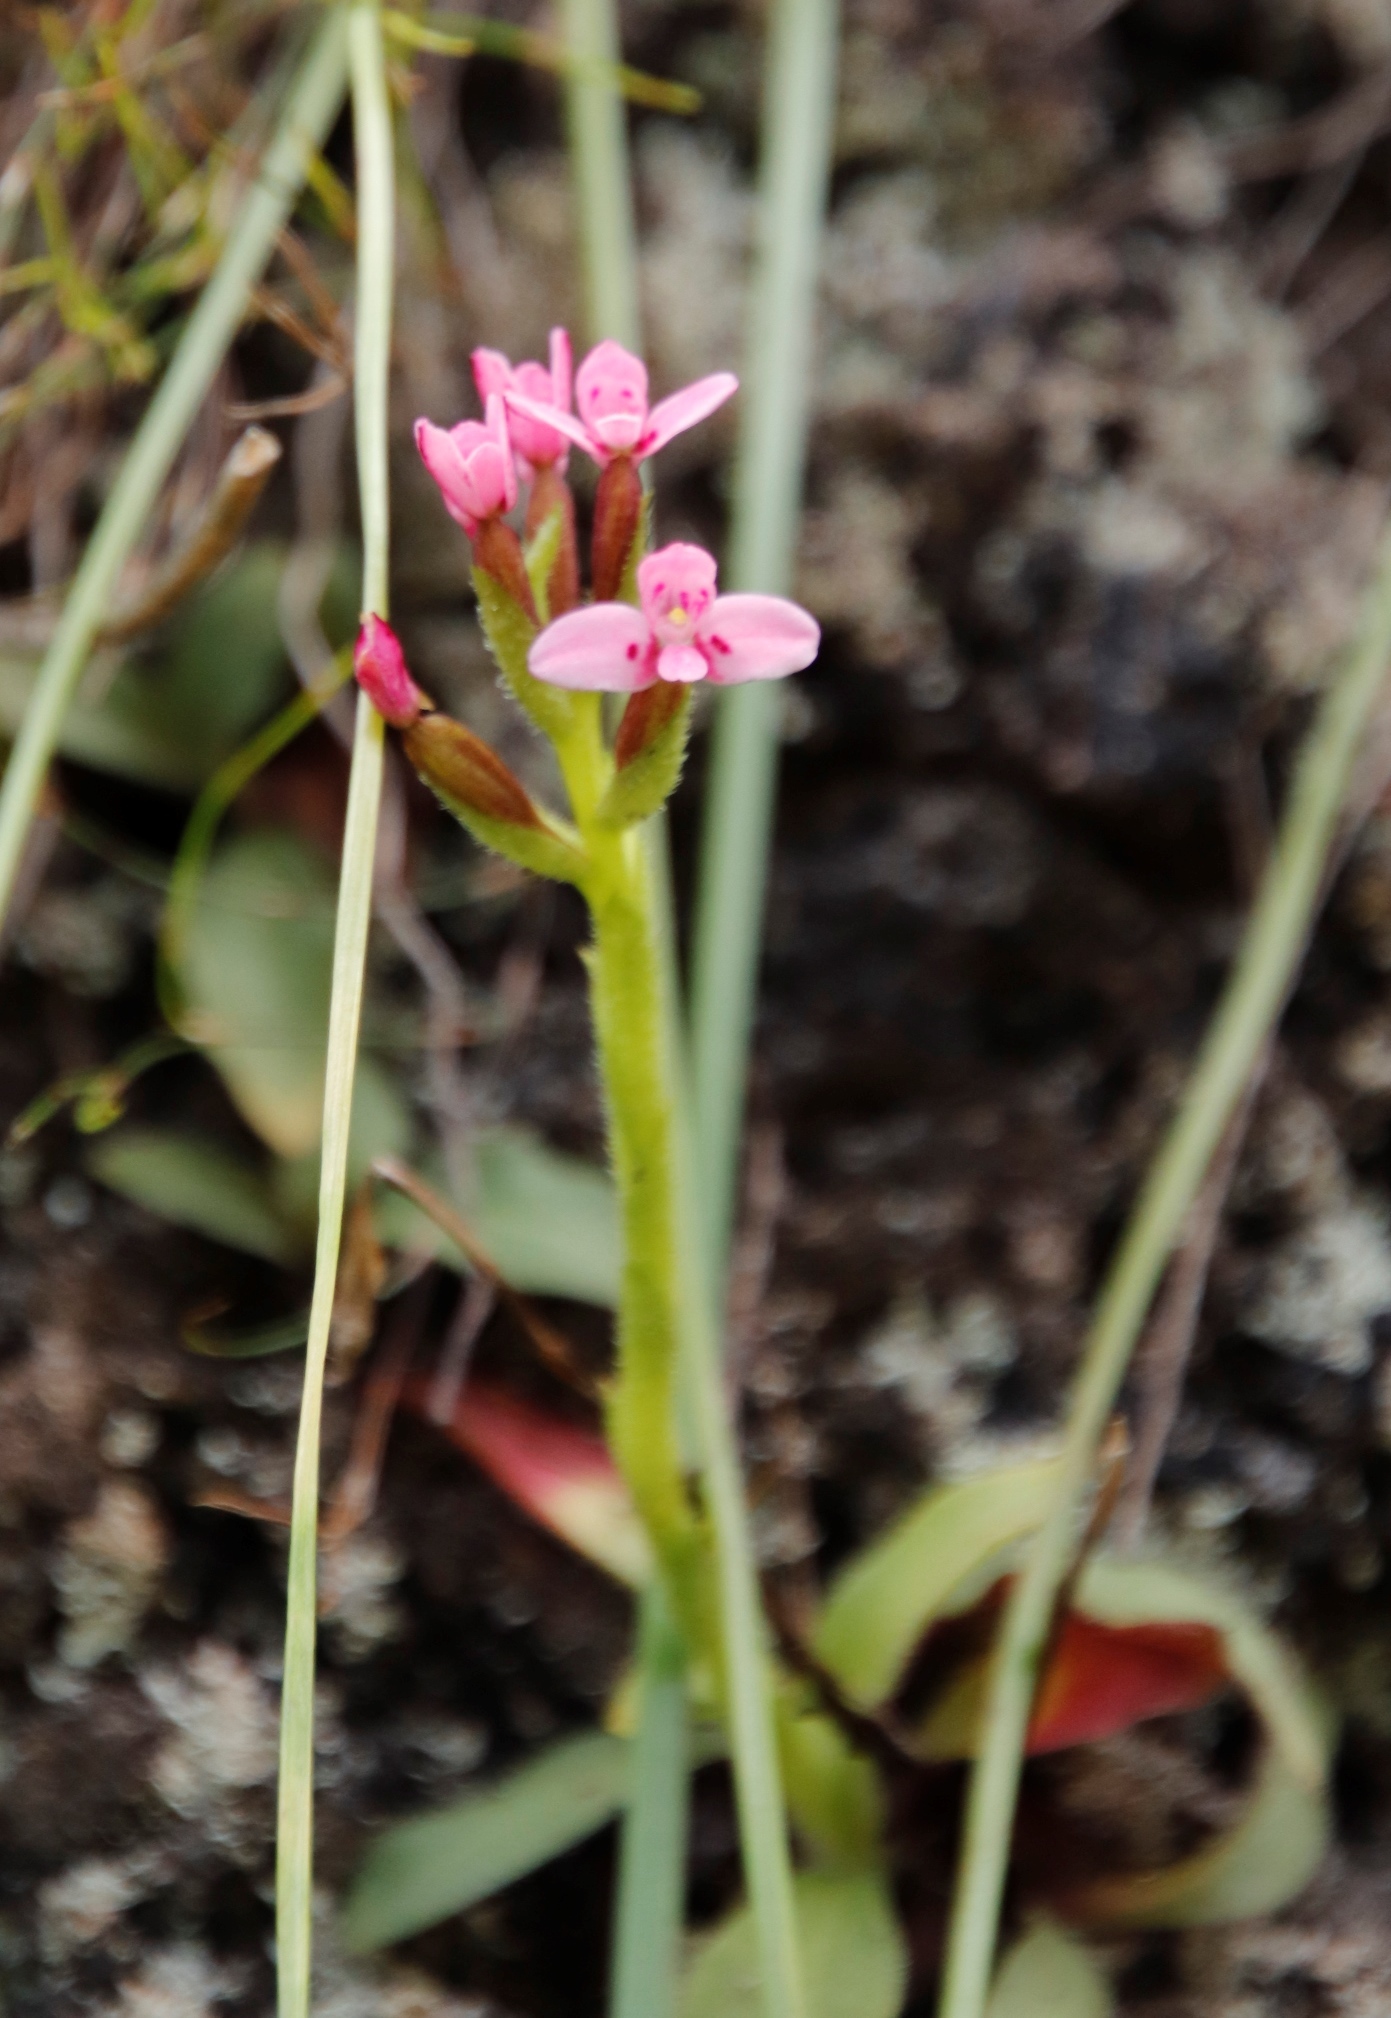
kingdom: Plantae
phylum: Tracheophyta
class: Liliopsida
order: Asparagales
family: Orchidaceae
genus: Disa
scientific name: Disa glandulosa
